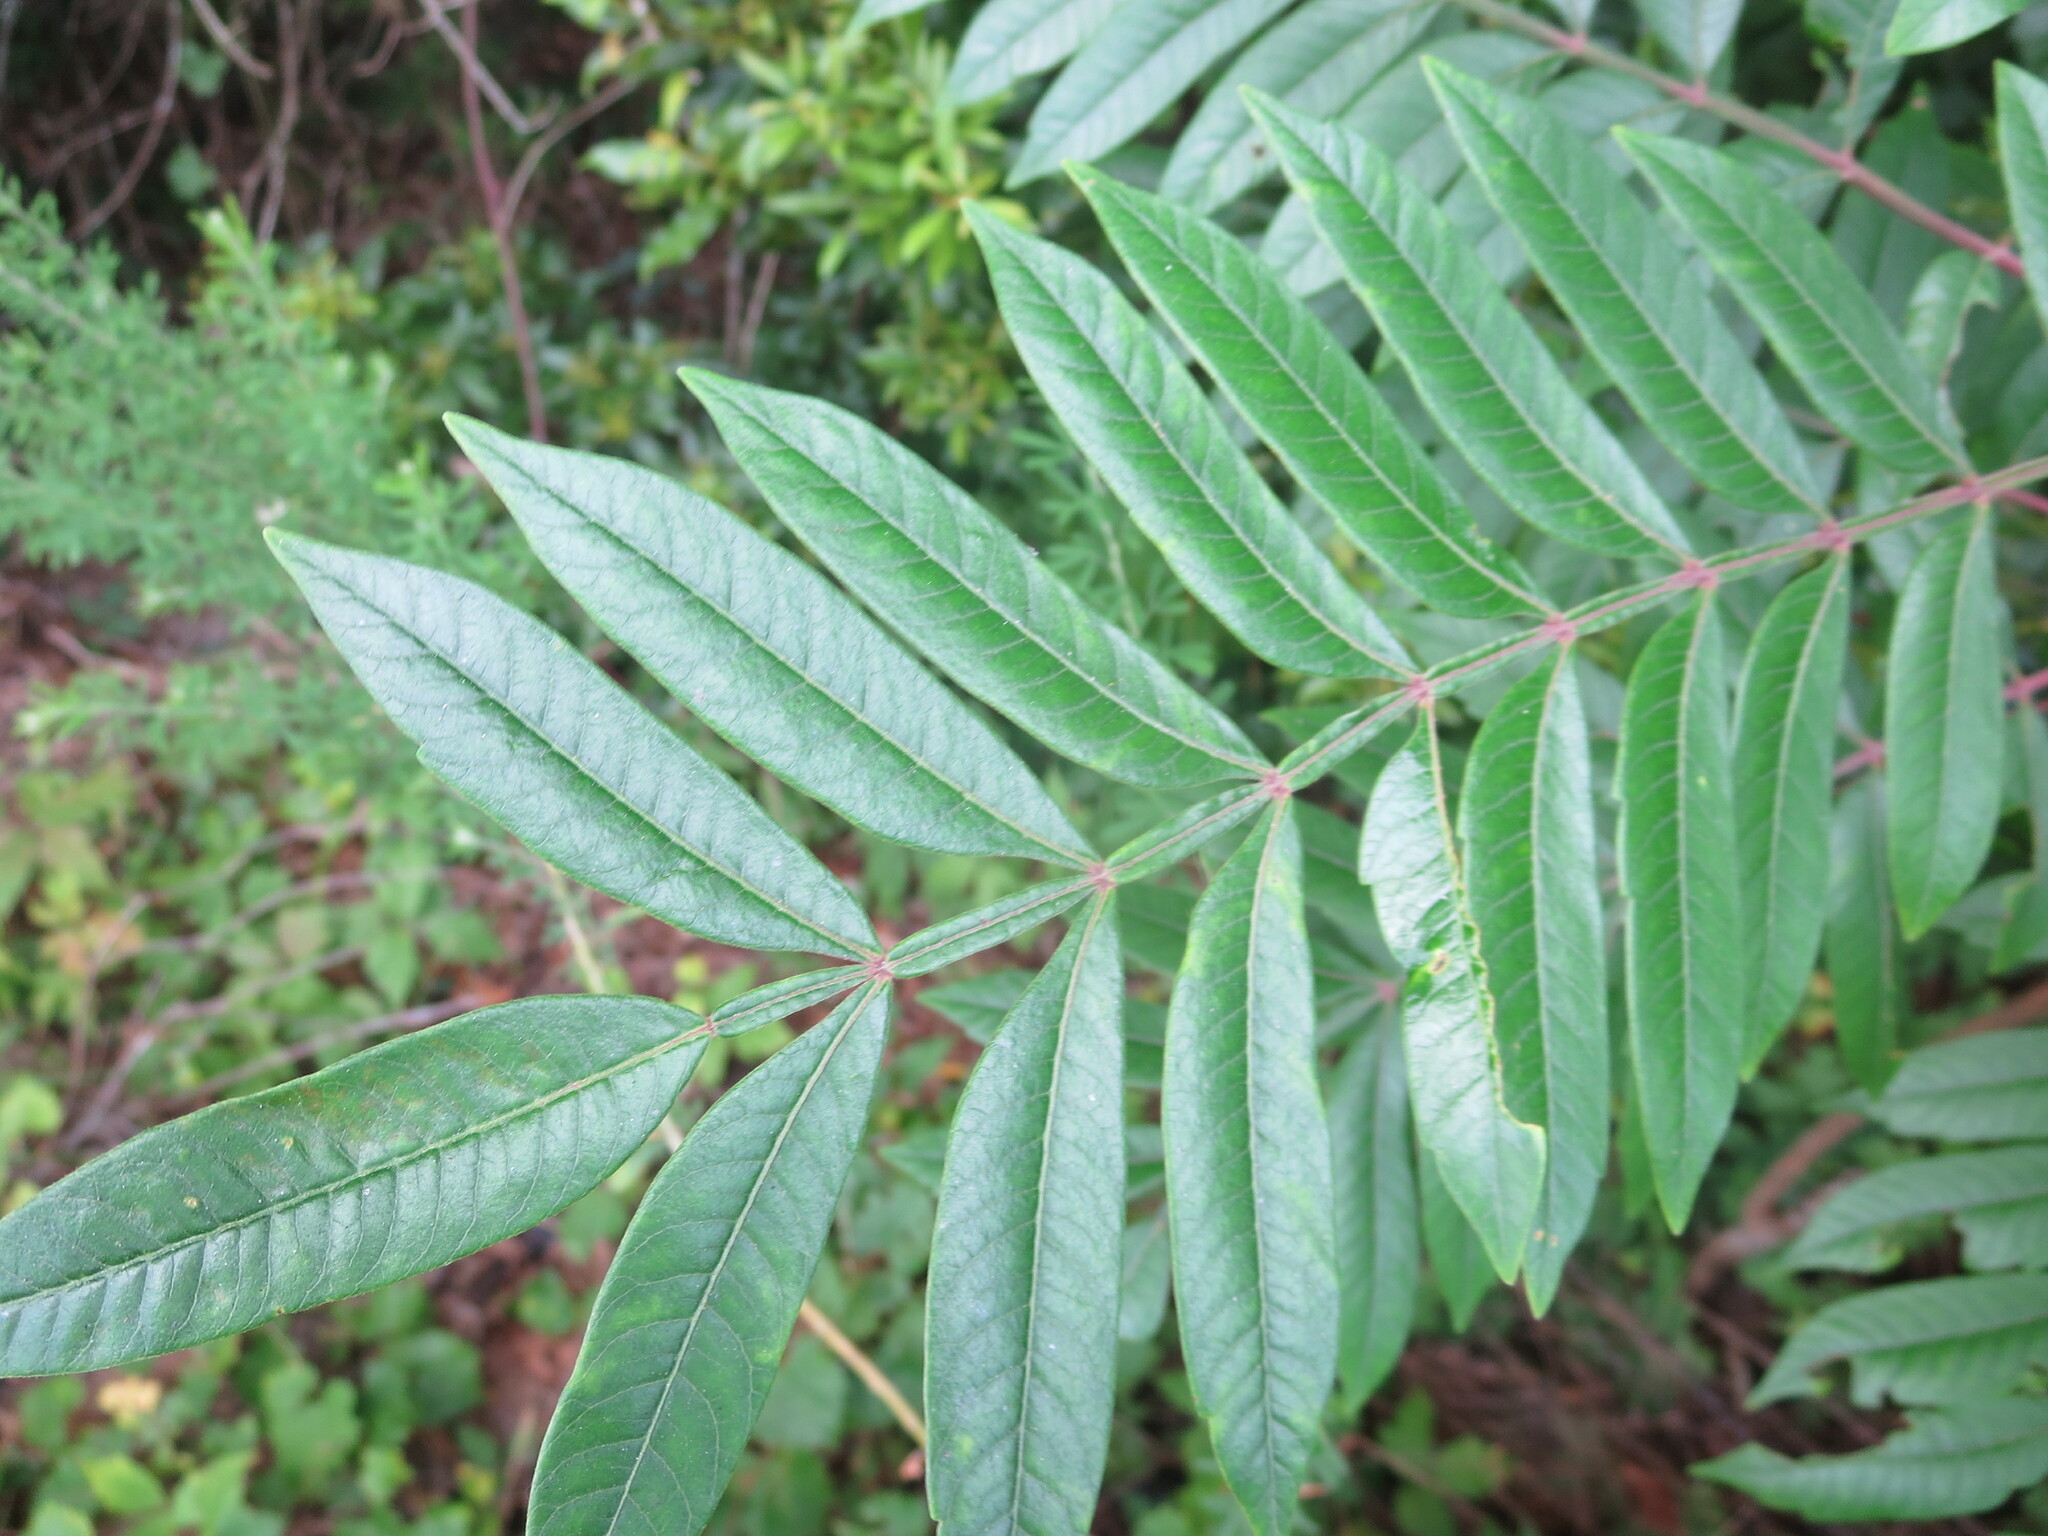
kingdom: Plantae
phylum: Tracheophyta
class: Magnoliopsida
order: Sapindales
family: Anacardiaceae
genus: Rhus
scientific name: Rhus copallina
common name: Shining sumac
